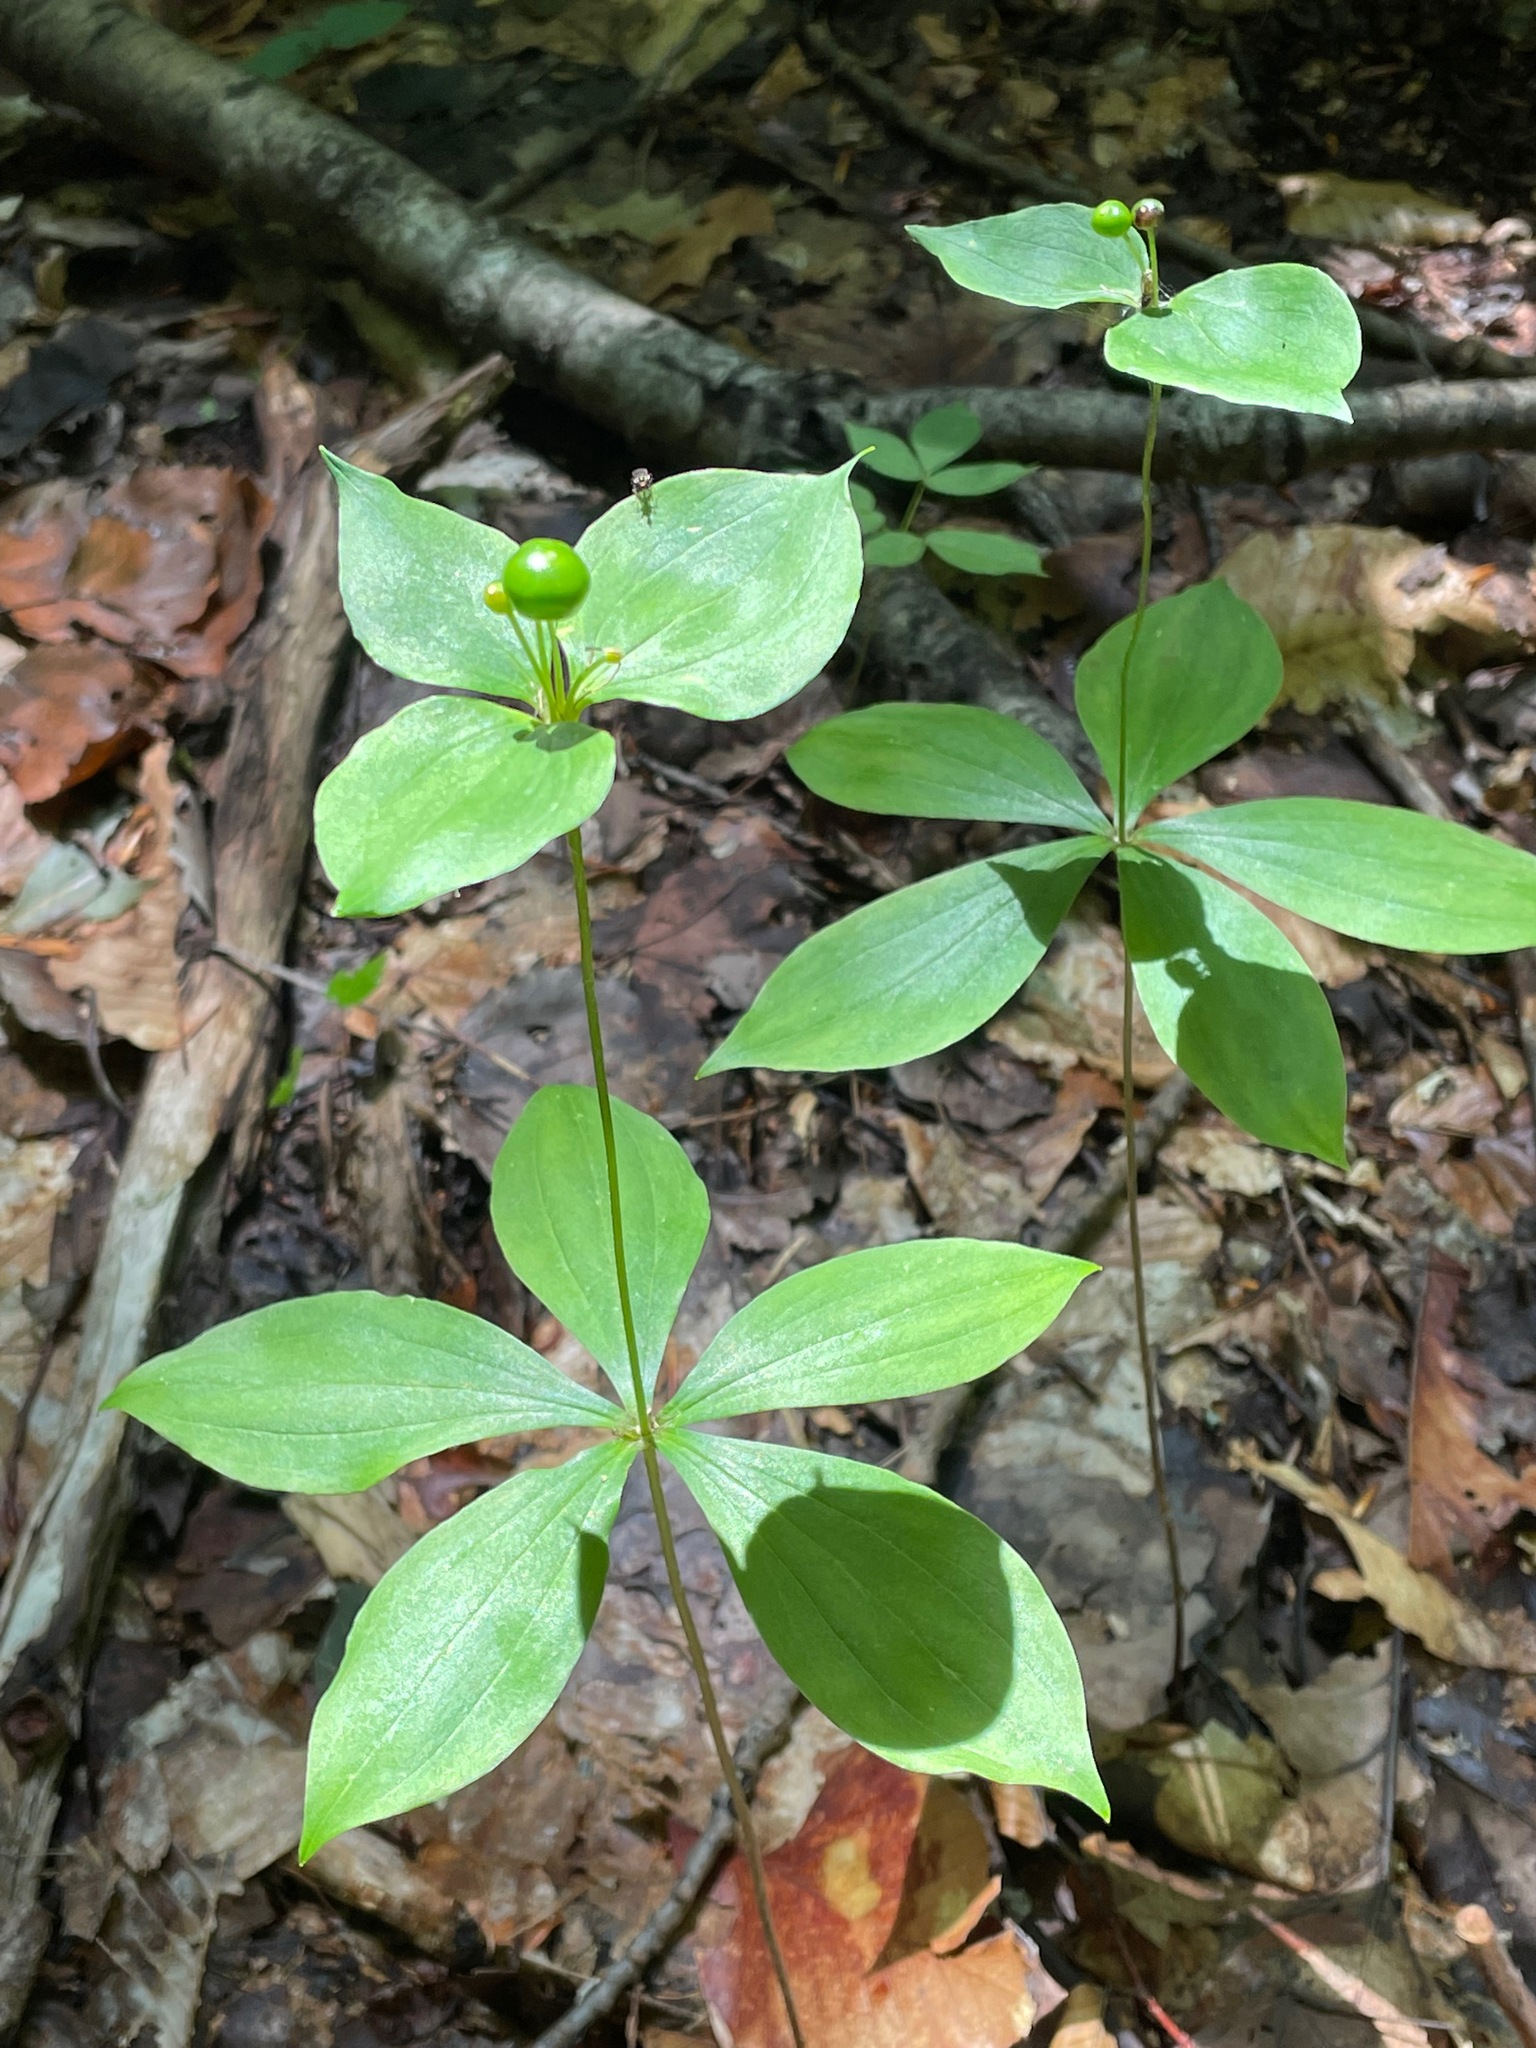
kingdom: Plantae
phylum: Tracheophyta
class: Liliopsida
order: Liliales
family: Liliaceae
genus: Medeola
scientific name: Medeola virginiana
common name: Indian cucumber-root
